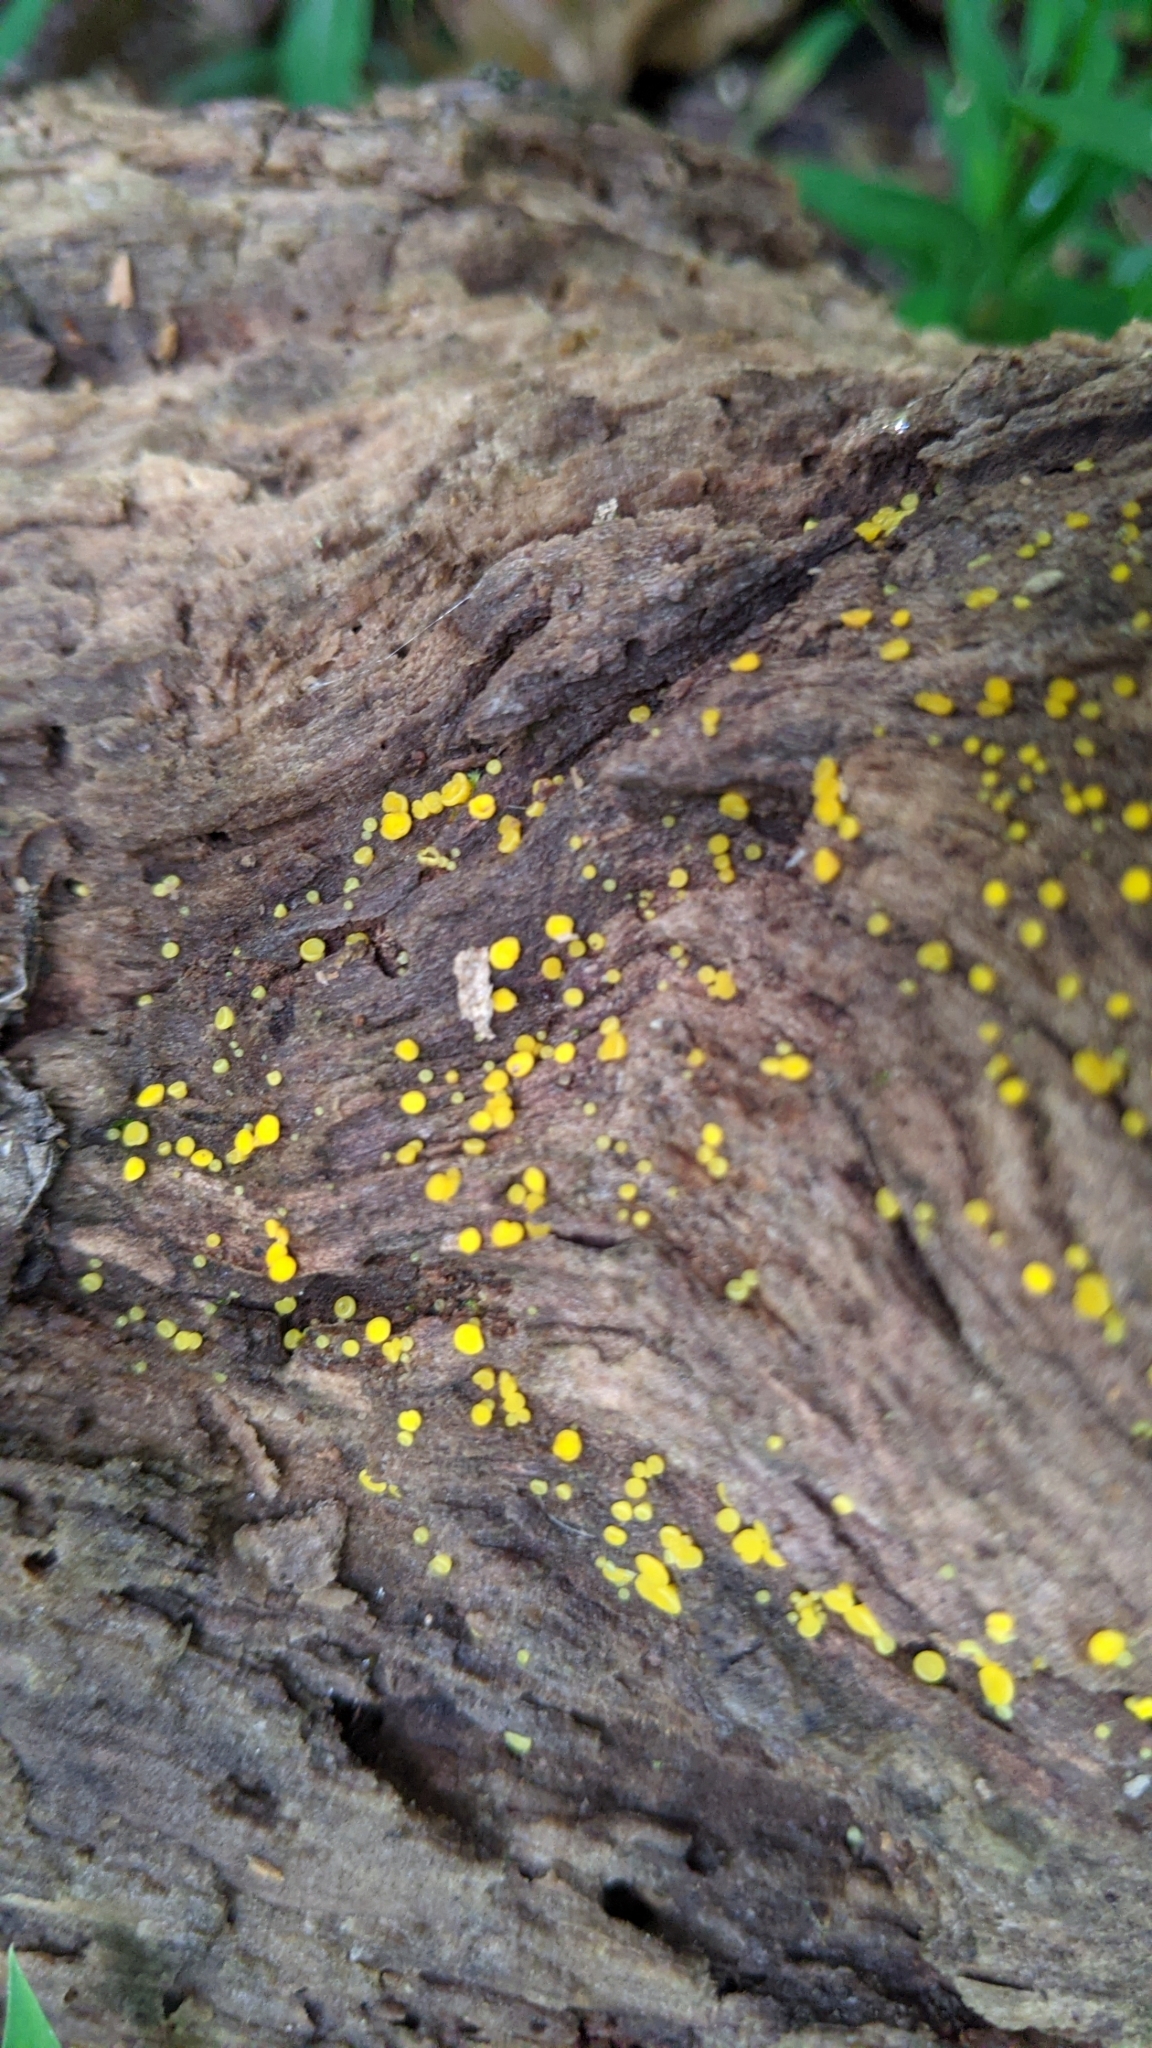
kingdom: Fungi
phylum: Ascomycota
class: Leotiomycetes
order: Helotiales
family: Pezizellaceae
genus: Calycina
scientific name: Calycina citrina
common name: Yellow fairy cups
